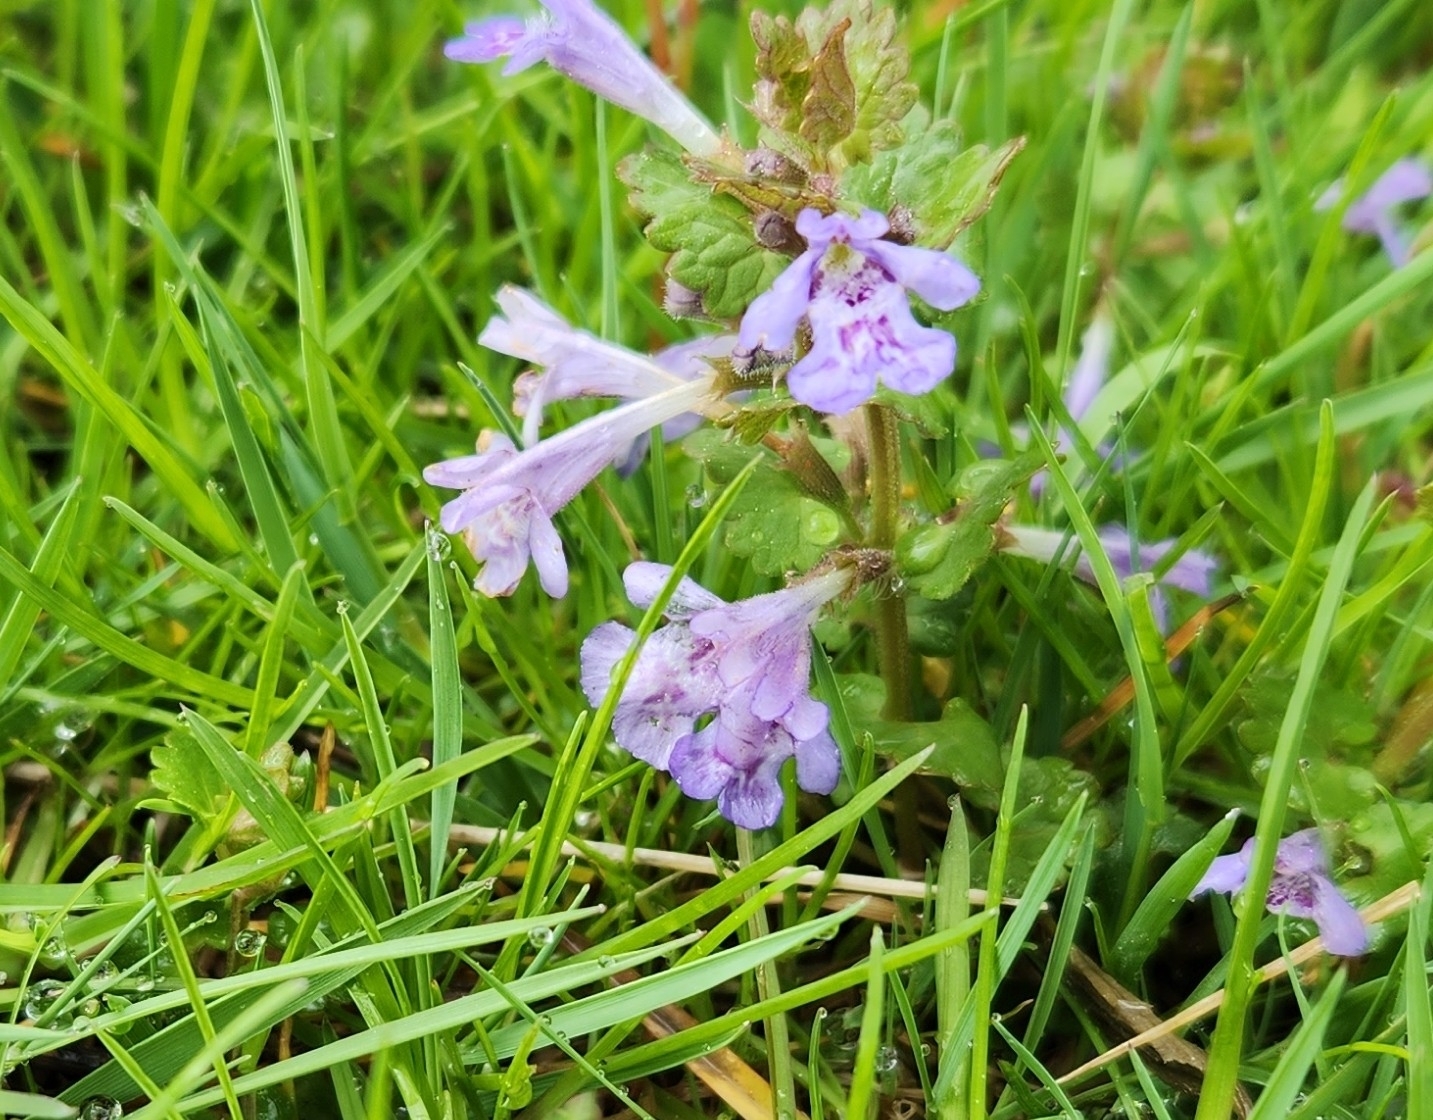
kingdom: Plantae
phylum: Tracheophyta
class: Magnoliopsida
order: Lamiales
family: Lamiaceae
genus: Glechoma
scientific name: Glechoma hederacea
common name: Ground ivy
